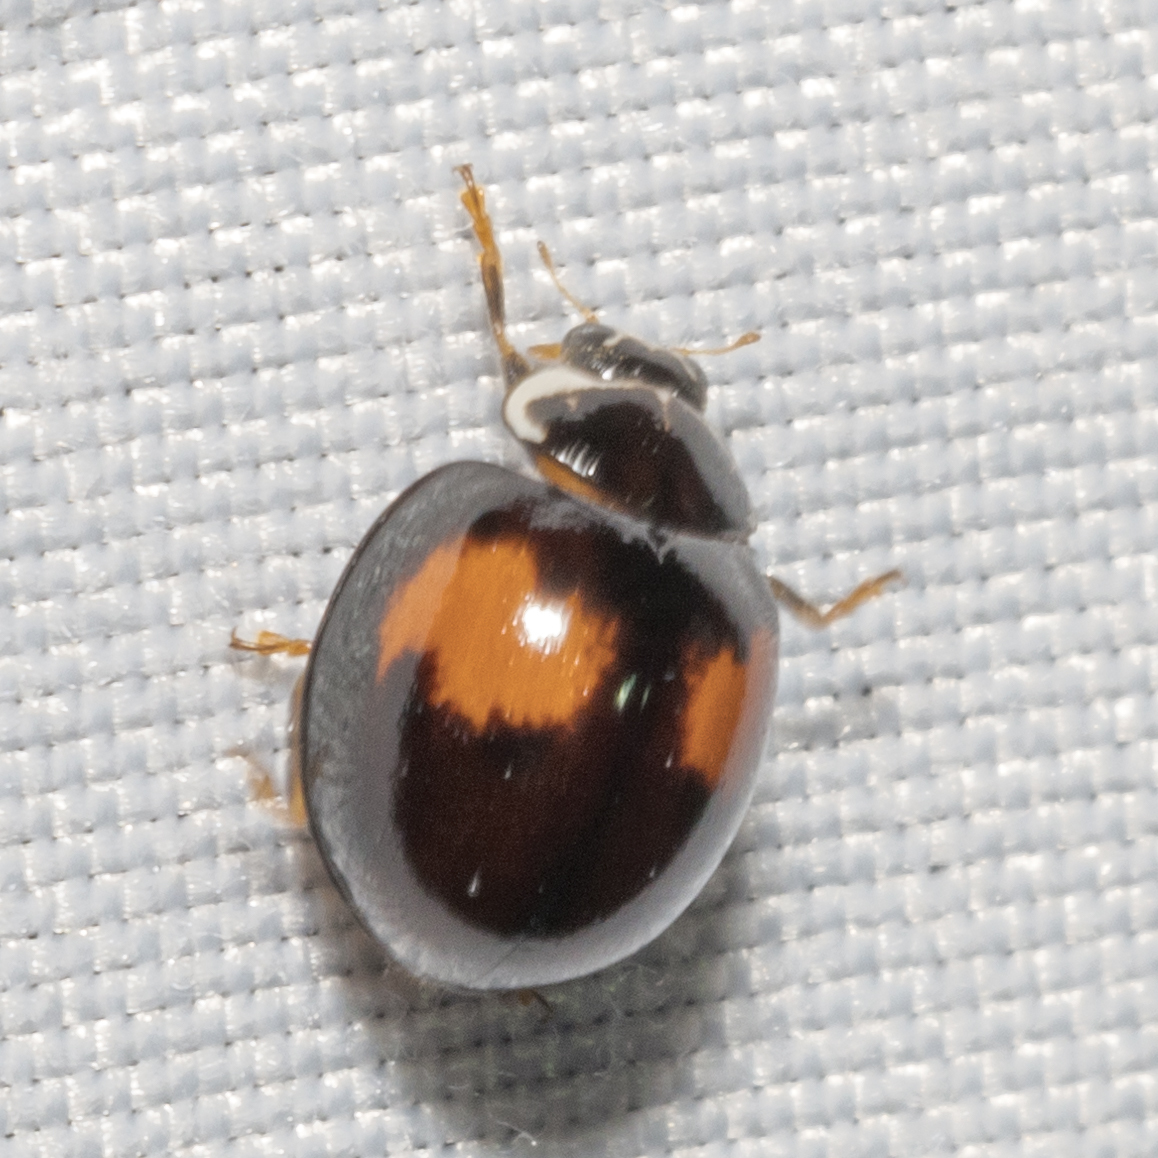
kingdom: Animalia
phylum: Arthropoda
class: Insecta
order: Coleoptera
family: Coccinellidae
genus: Olla
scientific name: Olla v-nigrum
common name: Ashy gray lady beetle
